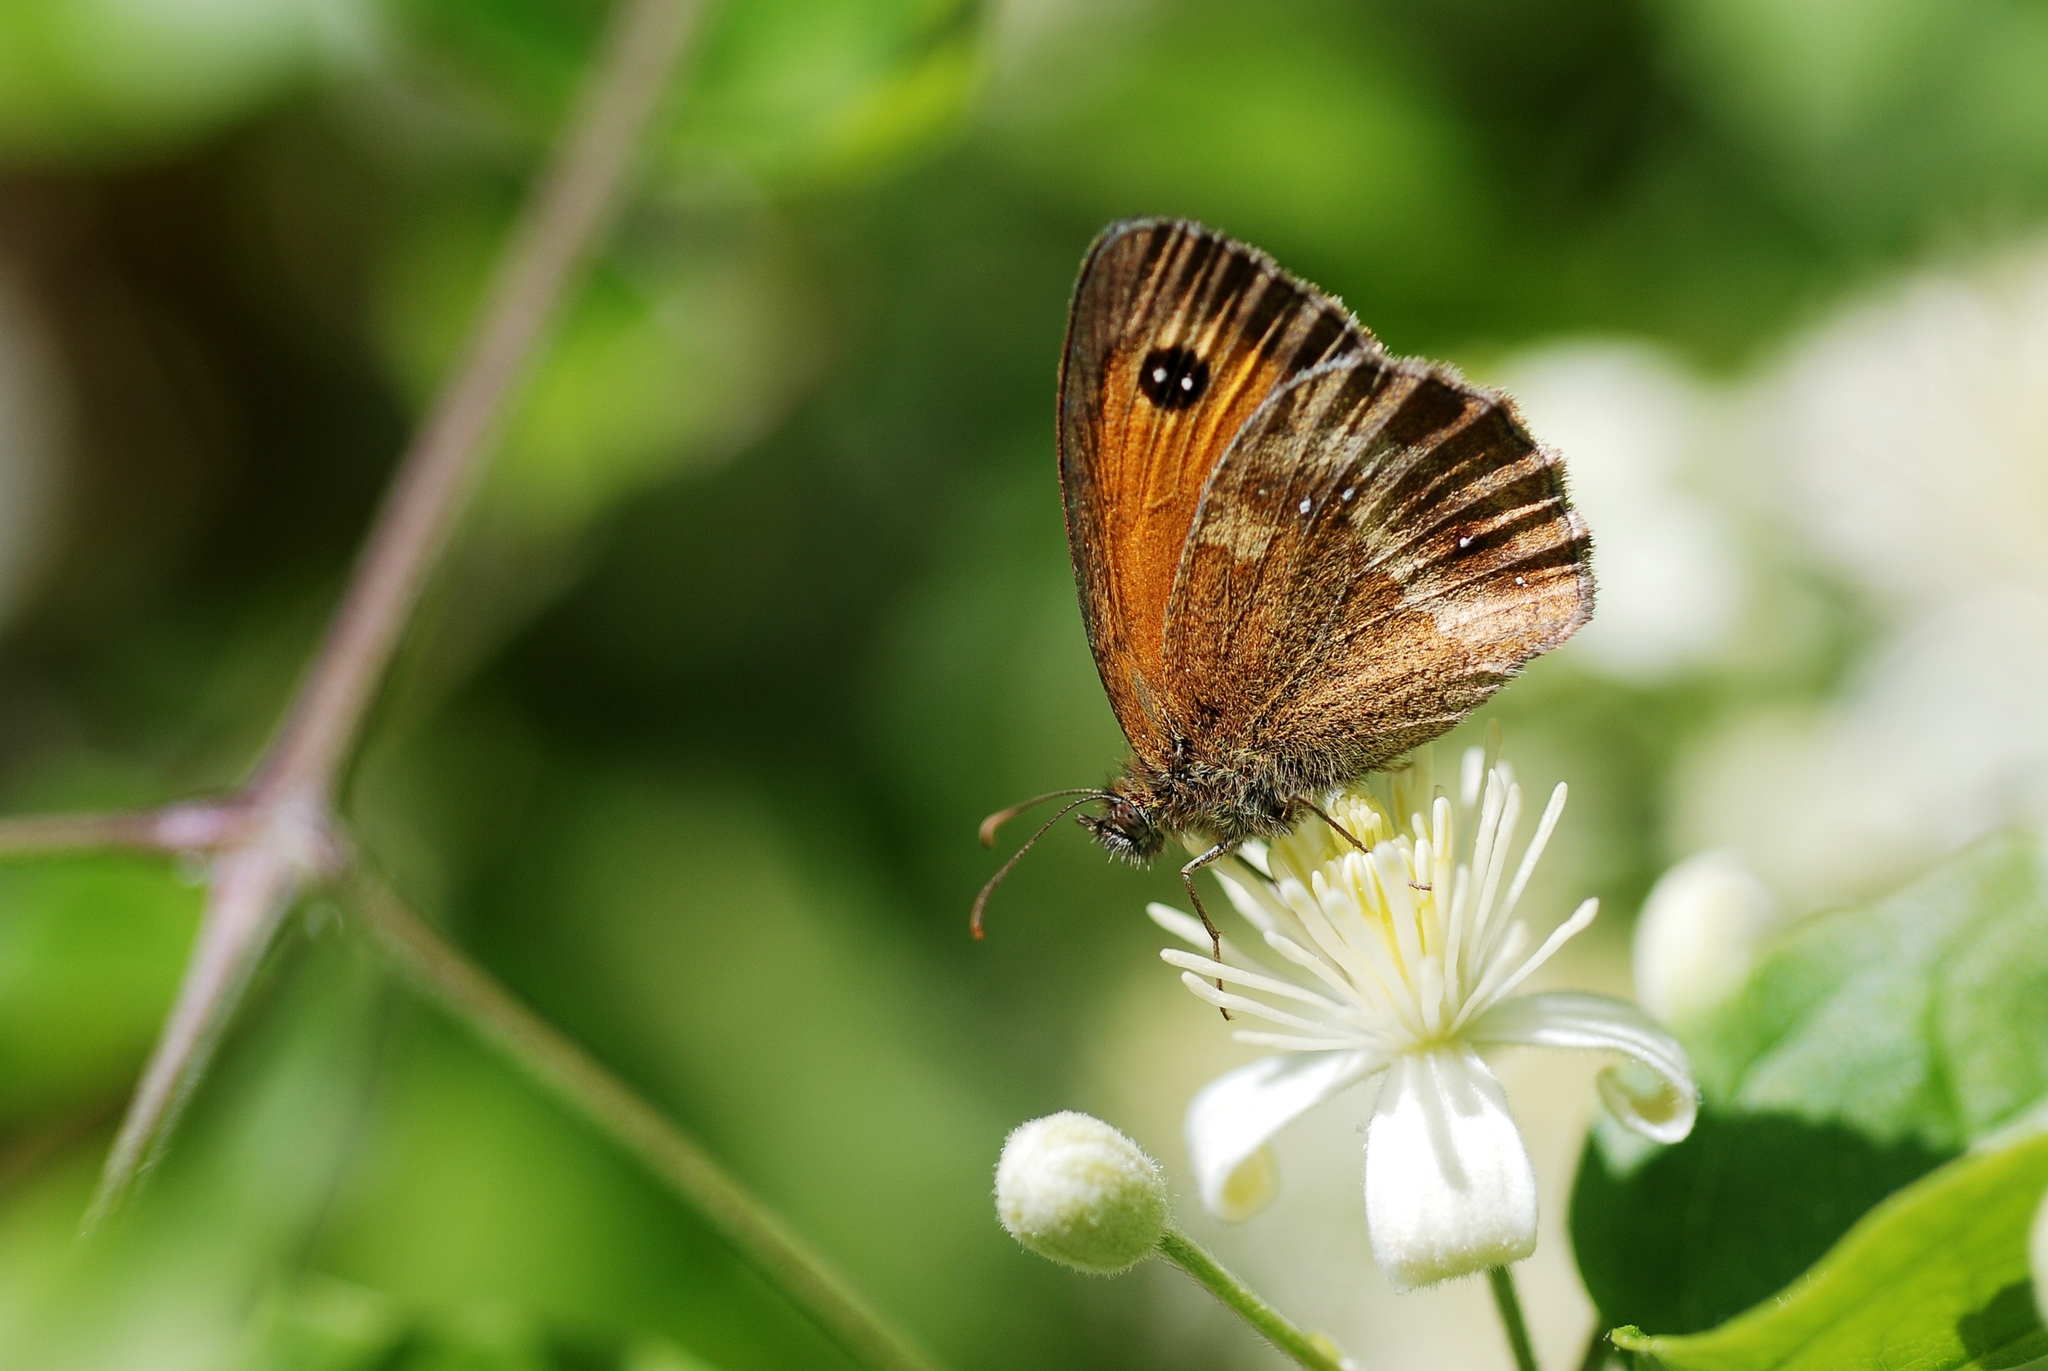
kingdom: Animalia
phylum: Arthropoda
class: Insecta
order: Lepidoptera
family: Nymphalidae
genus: Pyronia
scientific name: Pyronia tithonus
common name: Gatekeeper
